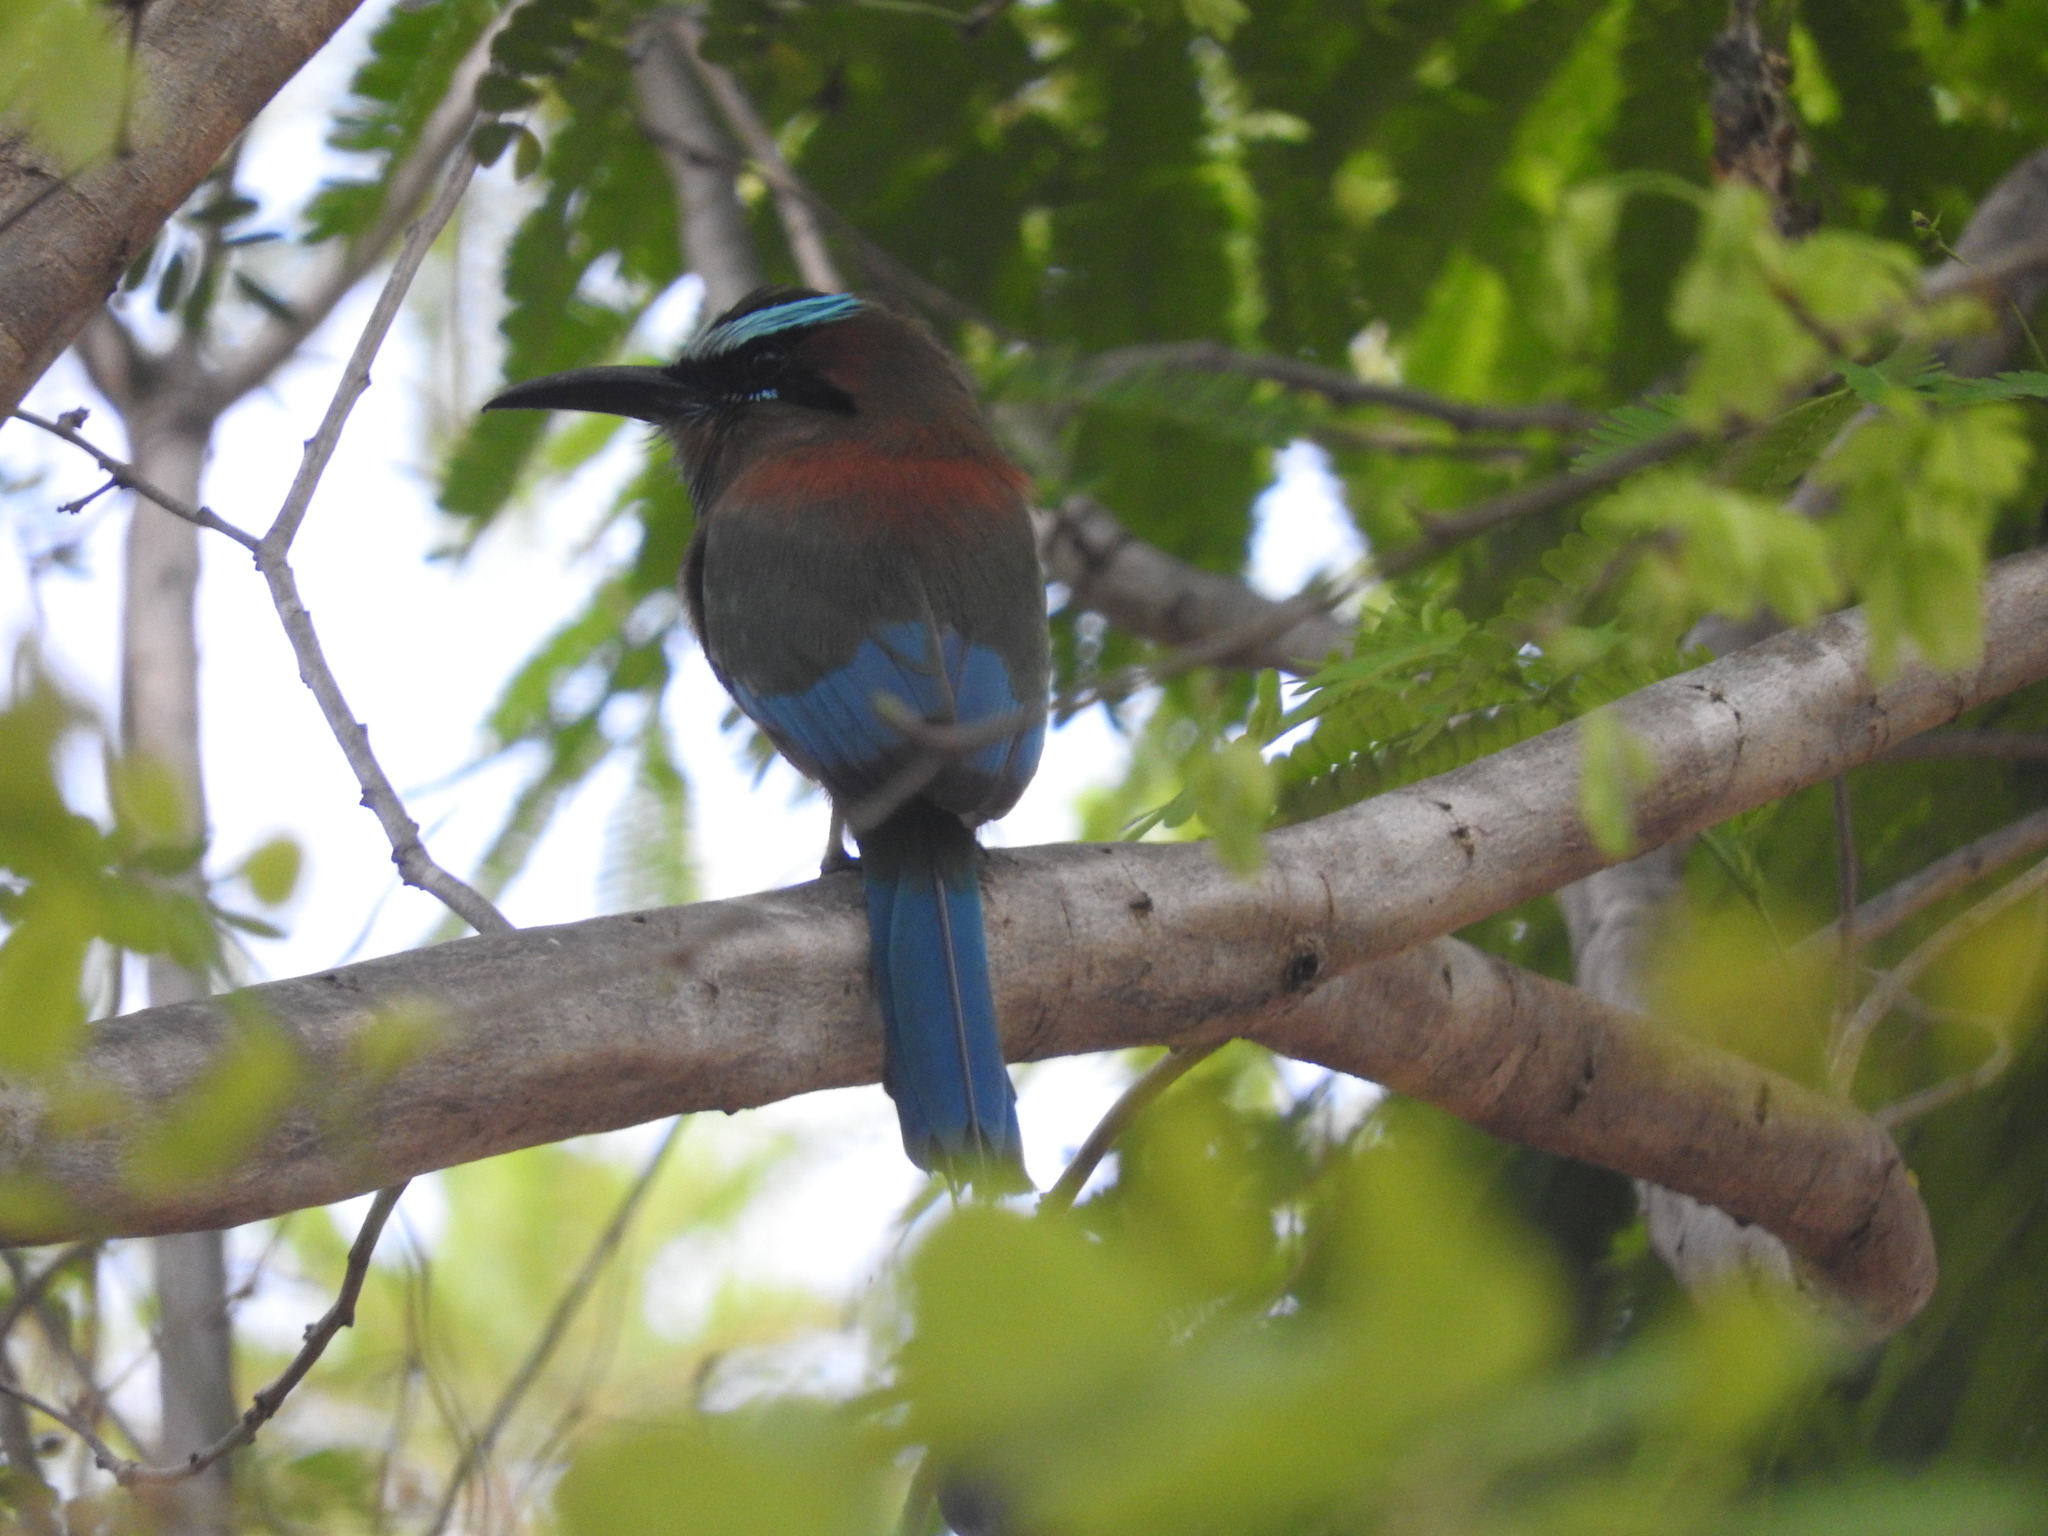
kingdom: Animalia
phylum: Chordata
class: Aves
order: Coraciiformes
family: Momotidae
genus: Eumomota
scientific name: Eumomota superciliosa
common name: Turquoise-browed motmot
